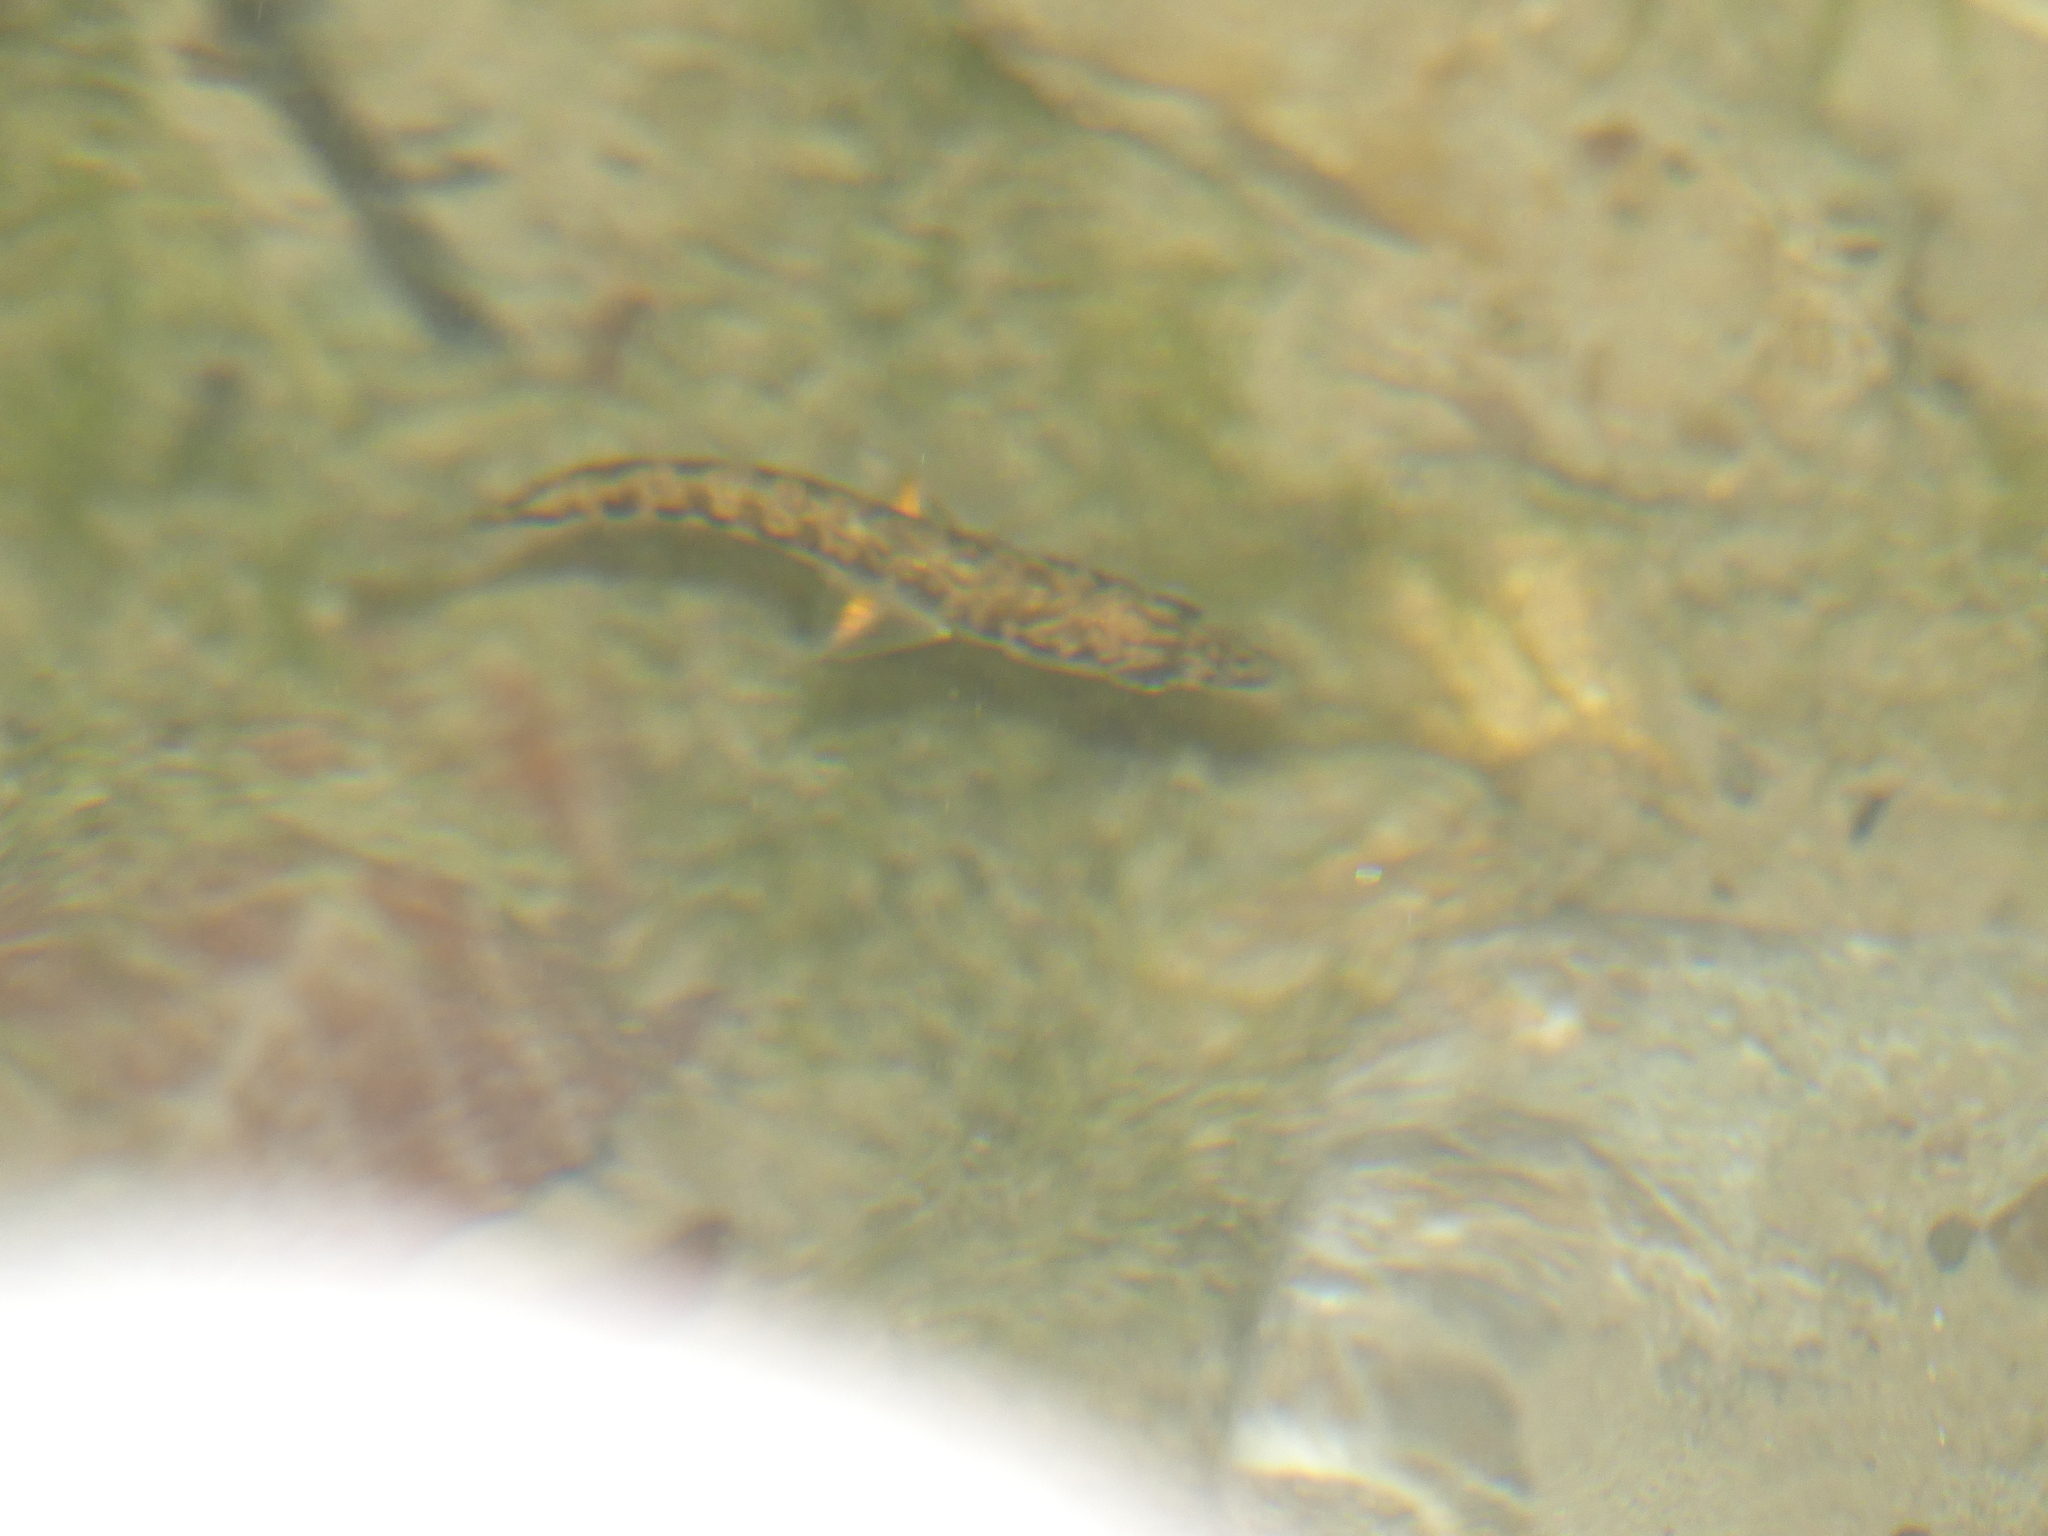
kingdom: Animalia
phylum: Chordata
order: Gasterosteiformes
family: Gasterosteidae
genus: Gasterosteus
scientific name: Gasterosteus aculeatus
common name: Three-spined stickleback
